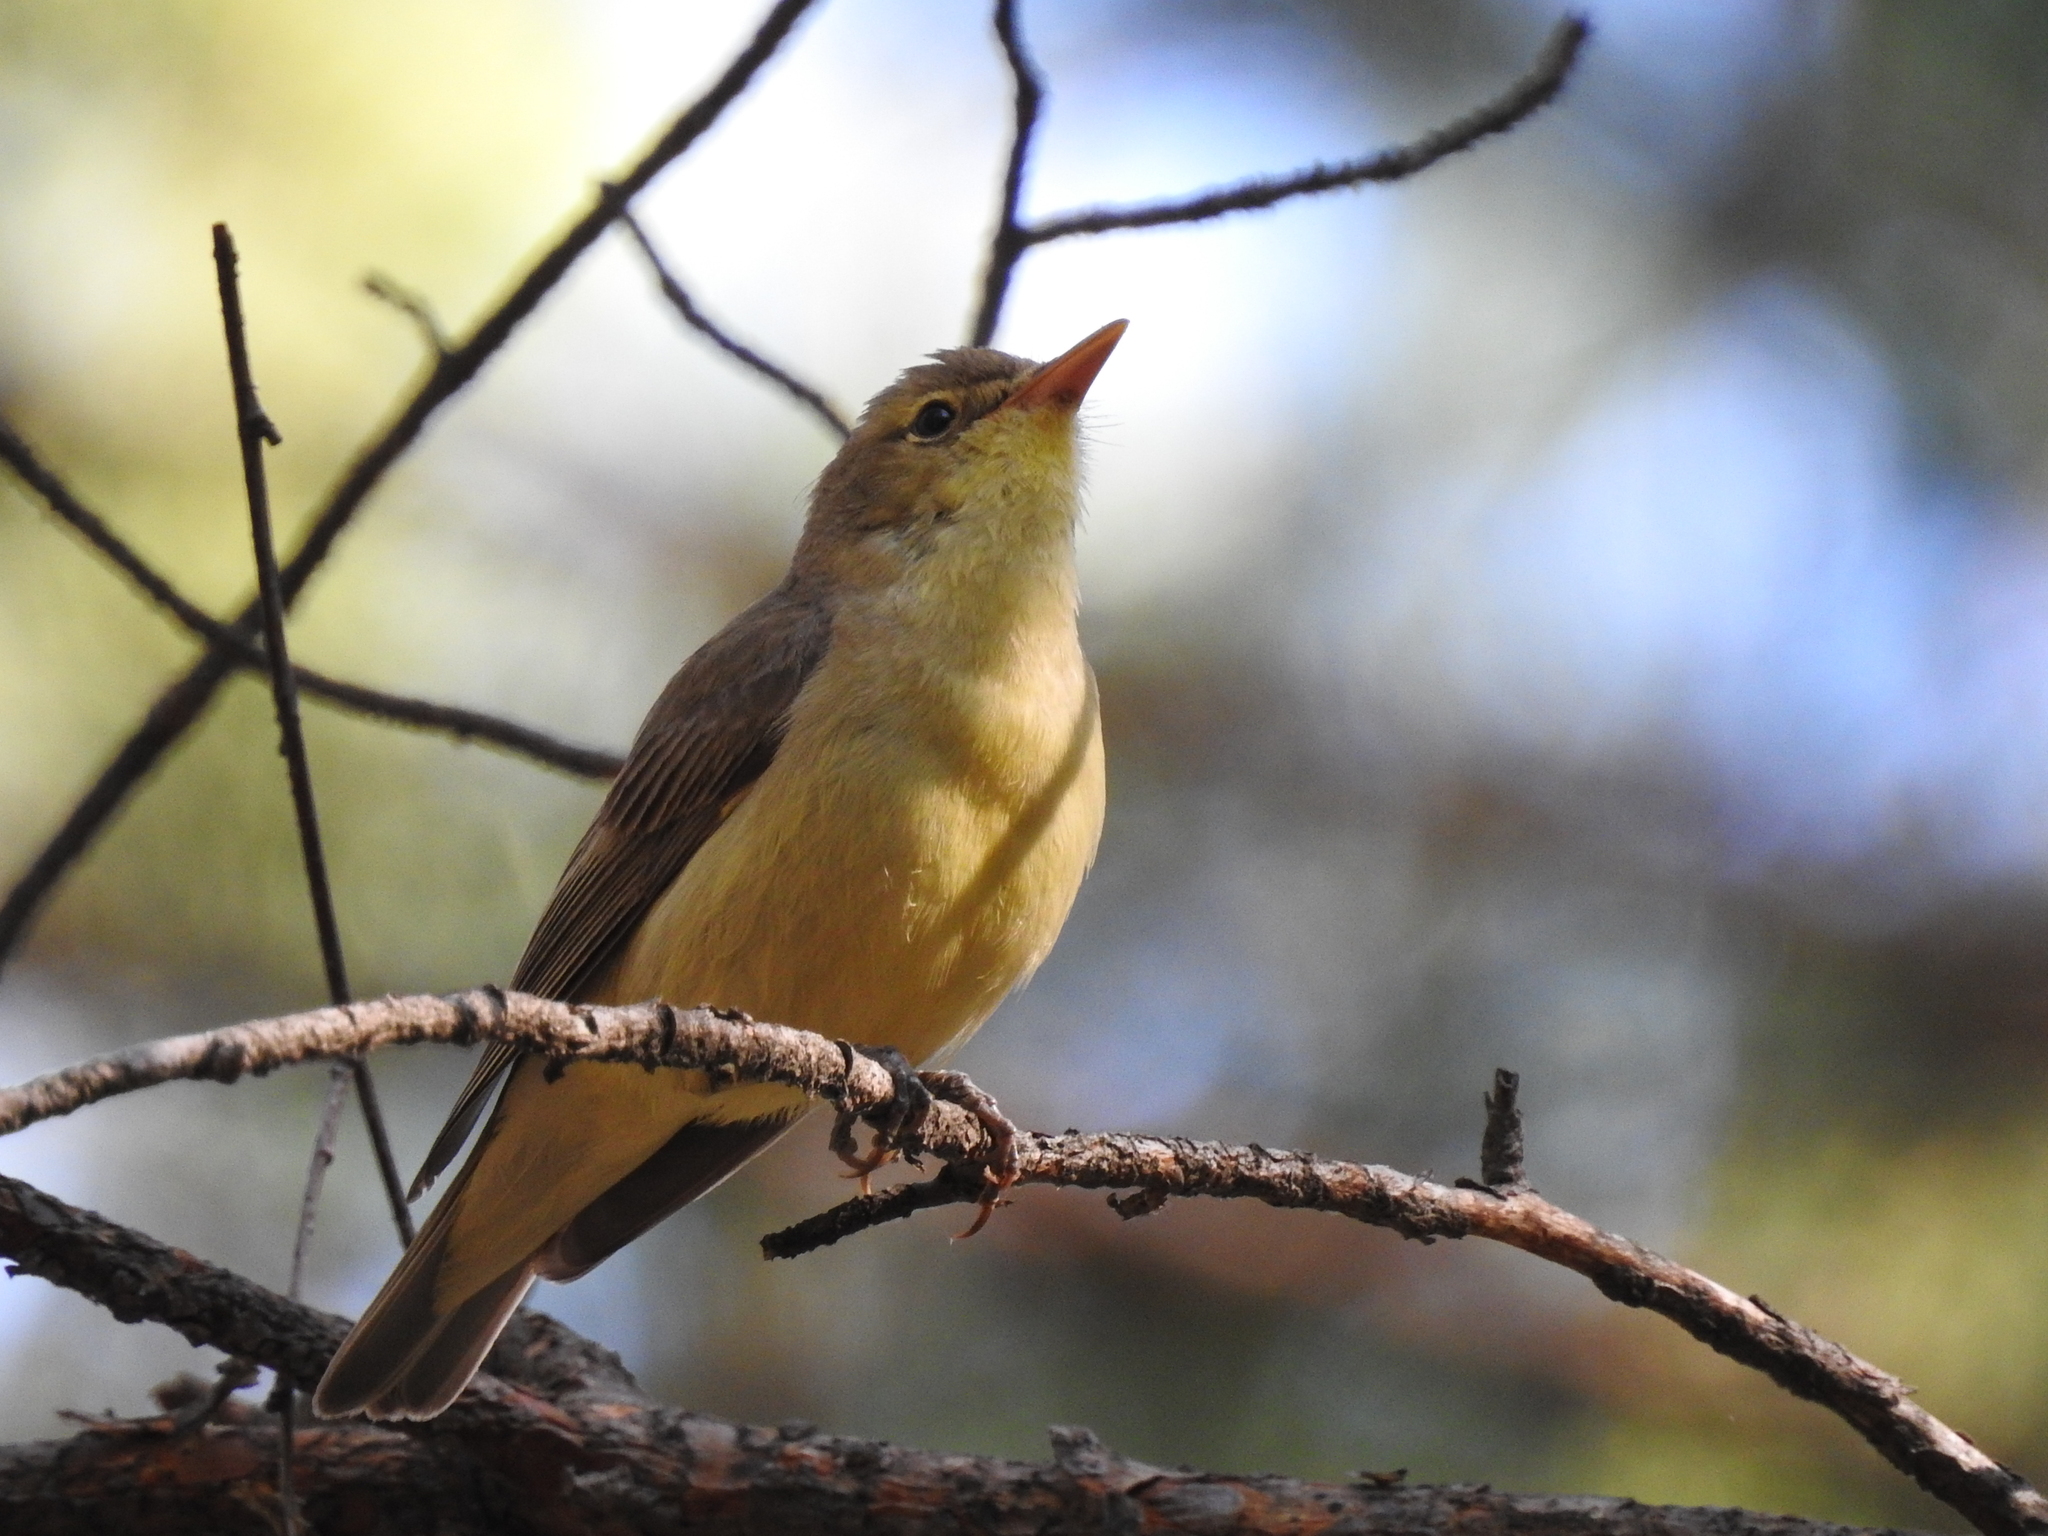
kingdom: Animalia
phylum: Chordata
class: Aves
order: Passeriformes
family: Acrocephalidae
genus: Hippolais
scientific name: Hippolais icterina
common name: Icterine warbler
